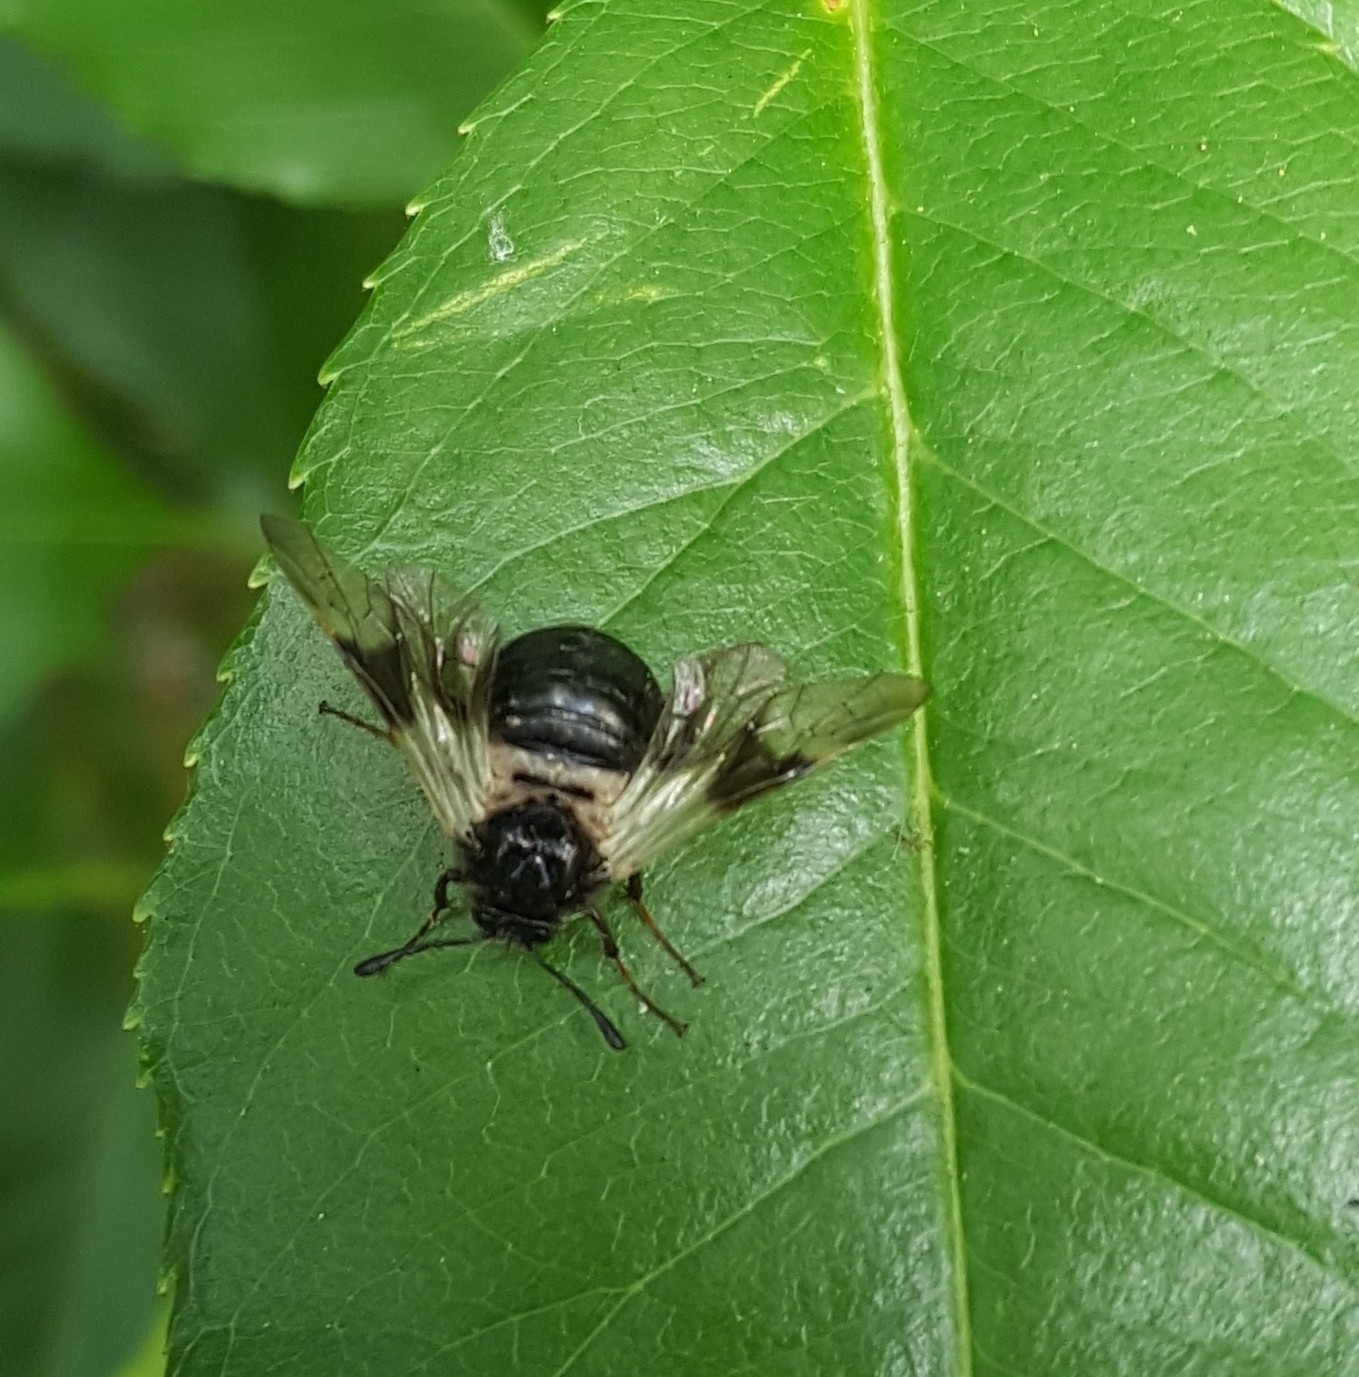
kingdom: Animalia
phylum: Arthropoda
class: Insecta
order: Hymenoptera
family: Cimbicidae
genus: Abia
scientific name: Abia fasciata
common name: Banded honeysuckle sawfly
